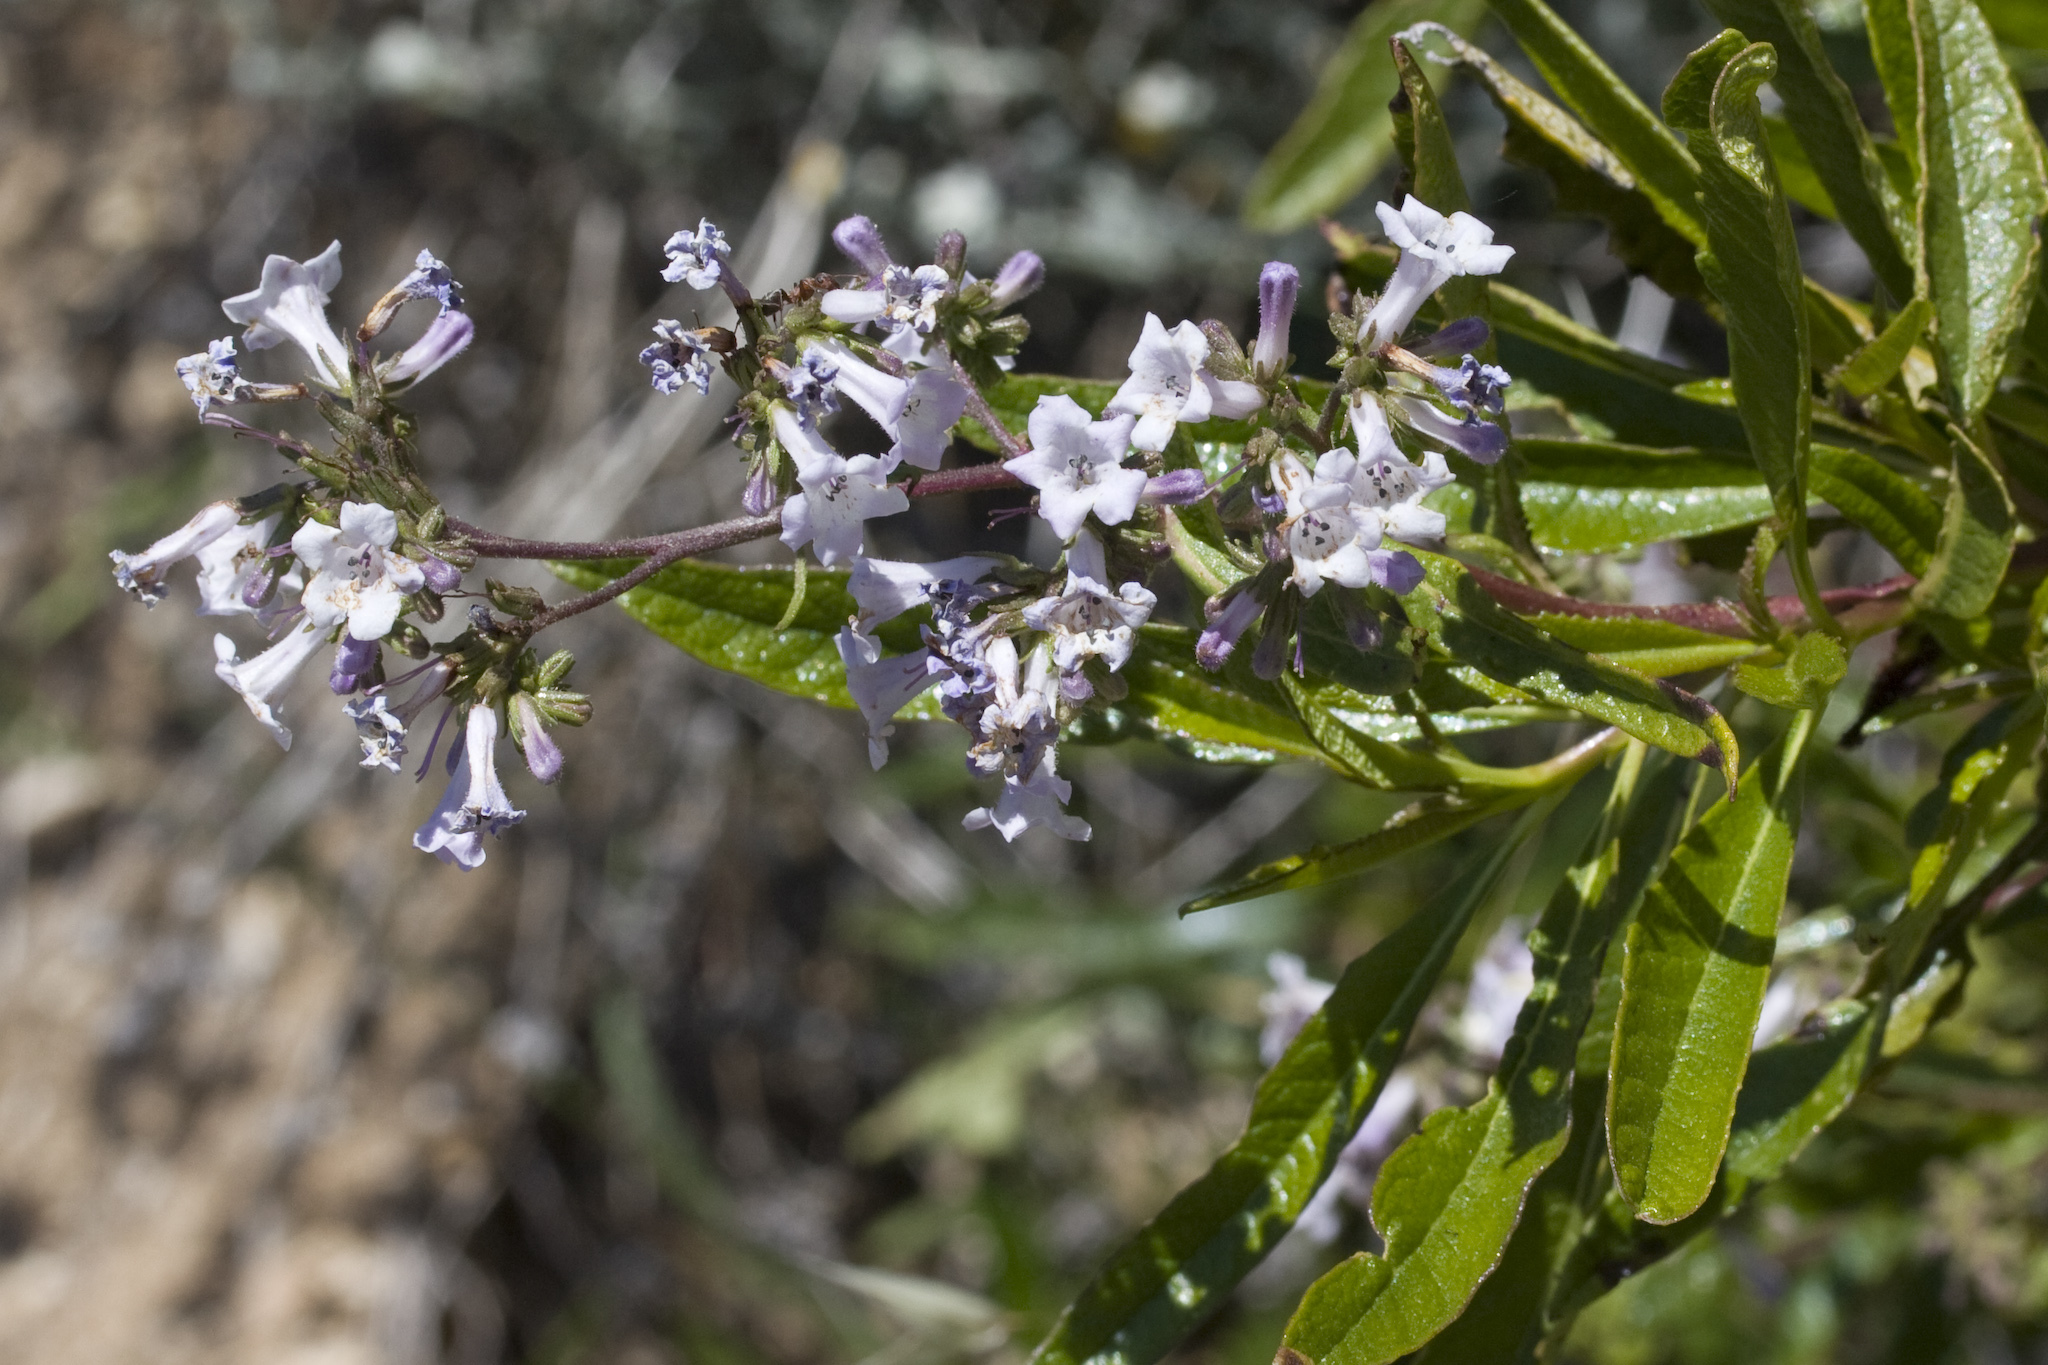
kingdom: Plantae
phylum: Tracheophyta
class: Magnoliopsida
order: Boraginales
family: Namaceae
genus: Eriodictyon
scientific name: Eriodictyon californicum
